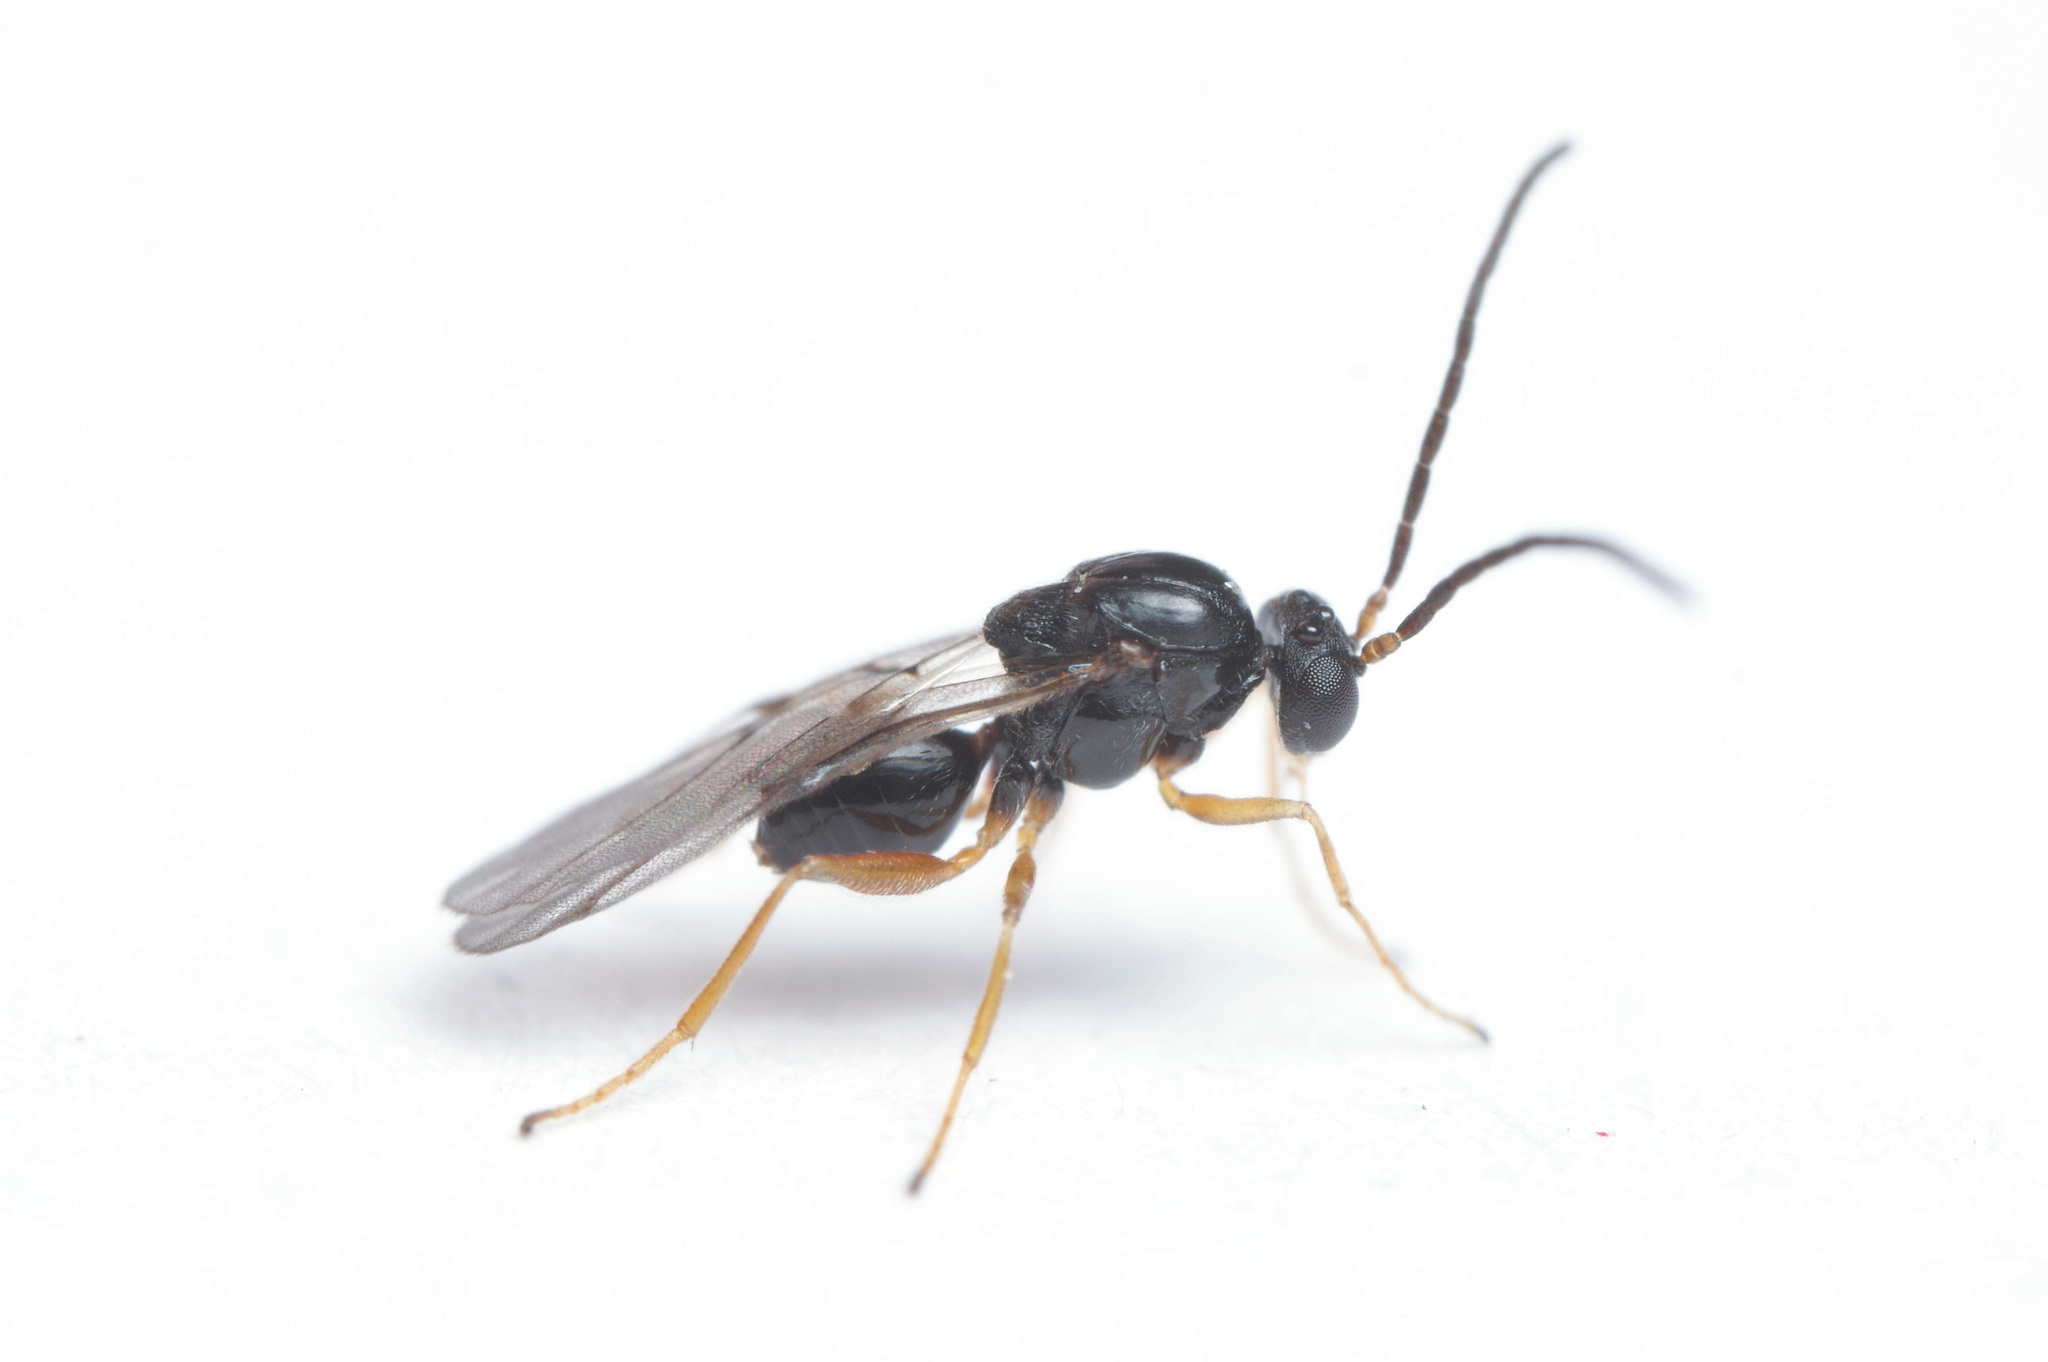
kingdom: Animalia
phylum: Arthropoda
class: Insecta
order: Hymenoptera
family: Cynipidae
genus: Disholcaspis
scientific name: Disholcaspis
